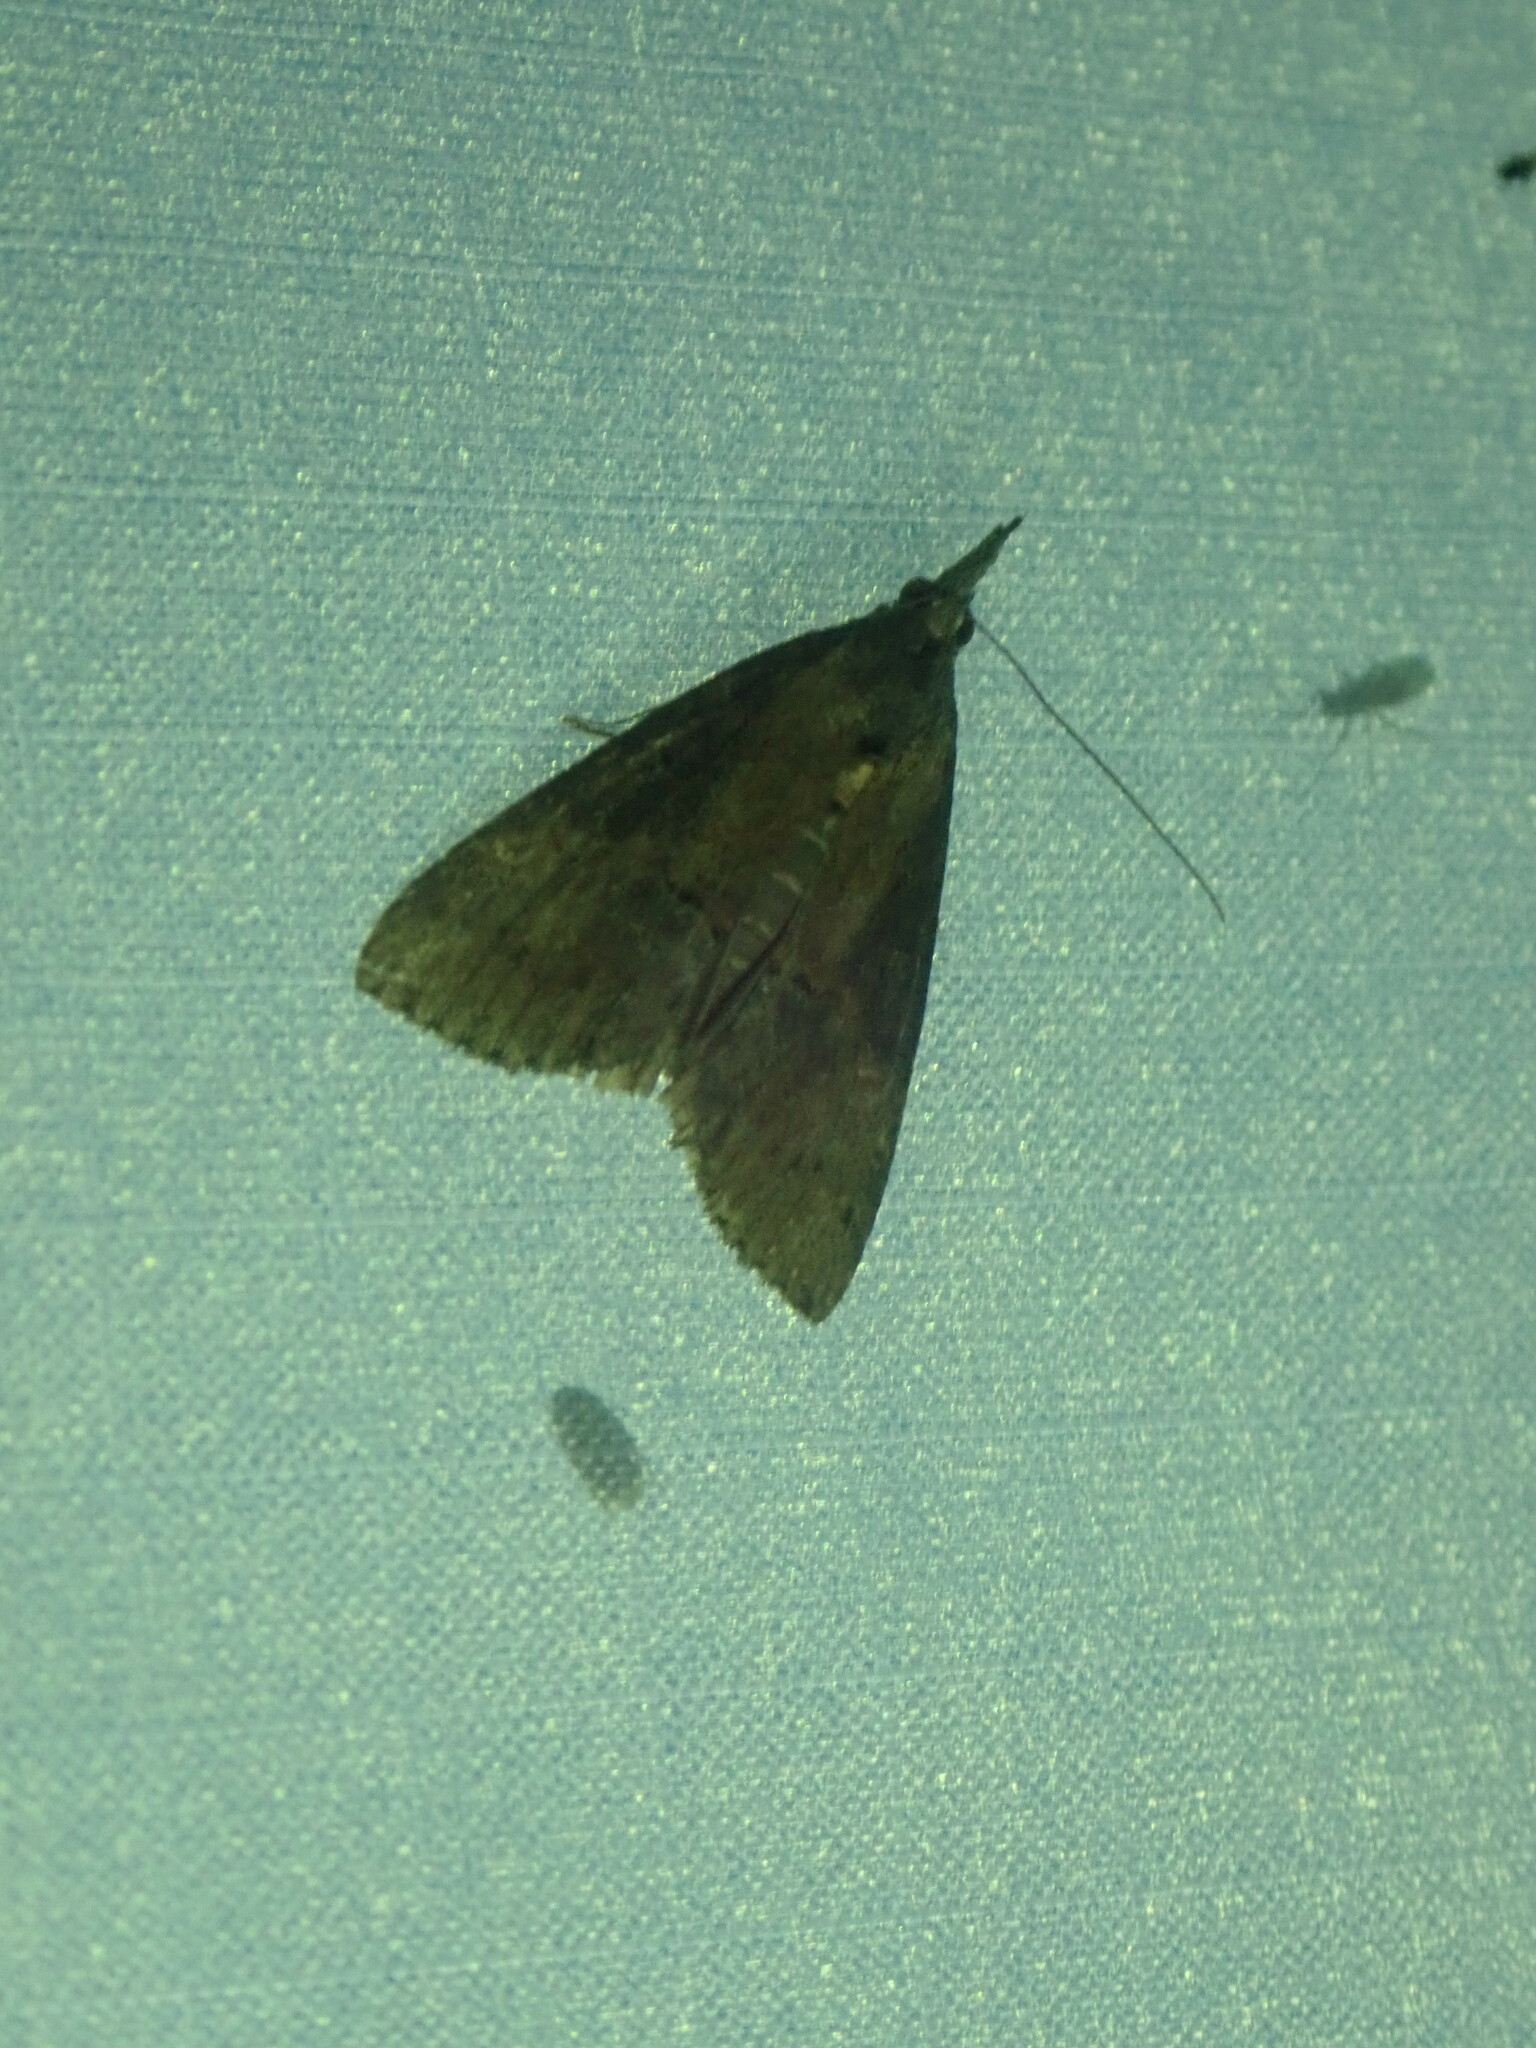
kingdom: Animalia
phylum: Arthropoda
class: Insecta
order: Lepidoptera
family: Erebidae
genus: Hypena
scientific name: Hypena scabra
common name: Green cloverworm
